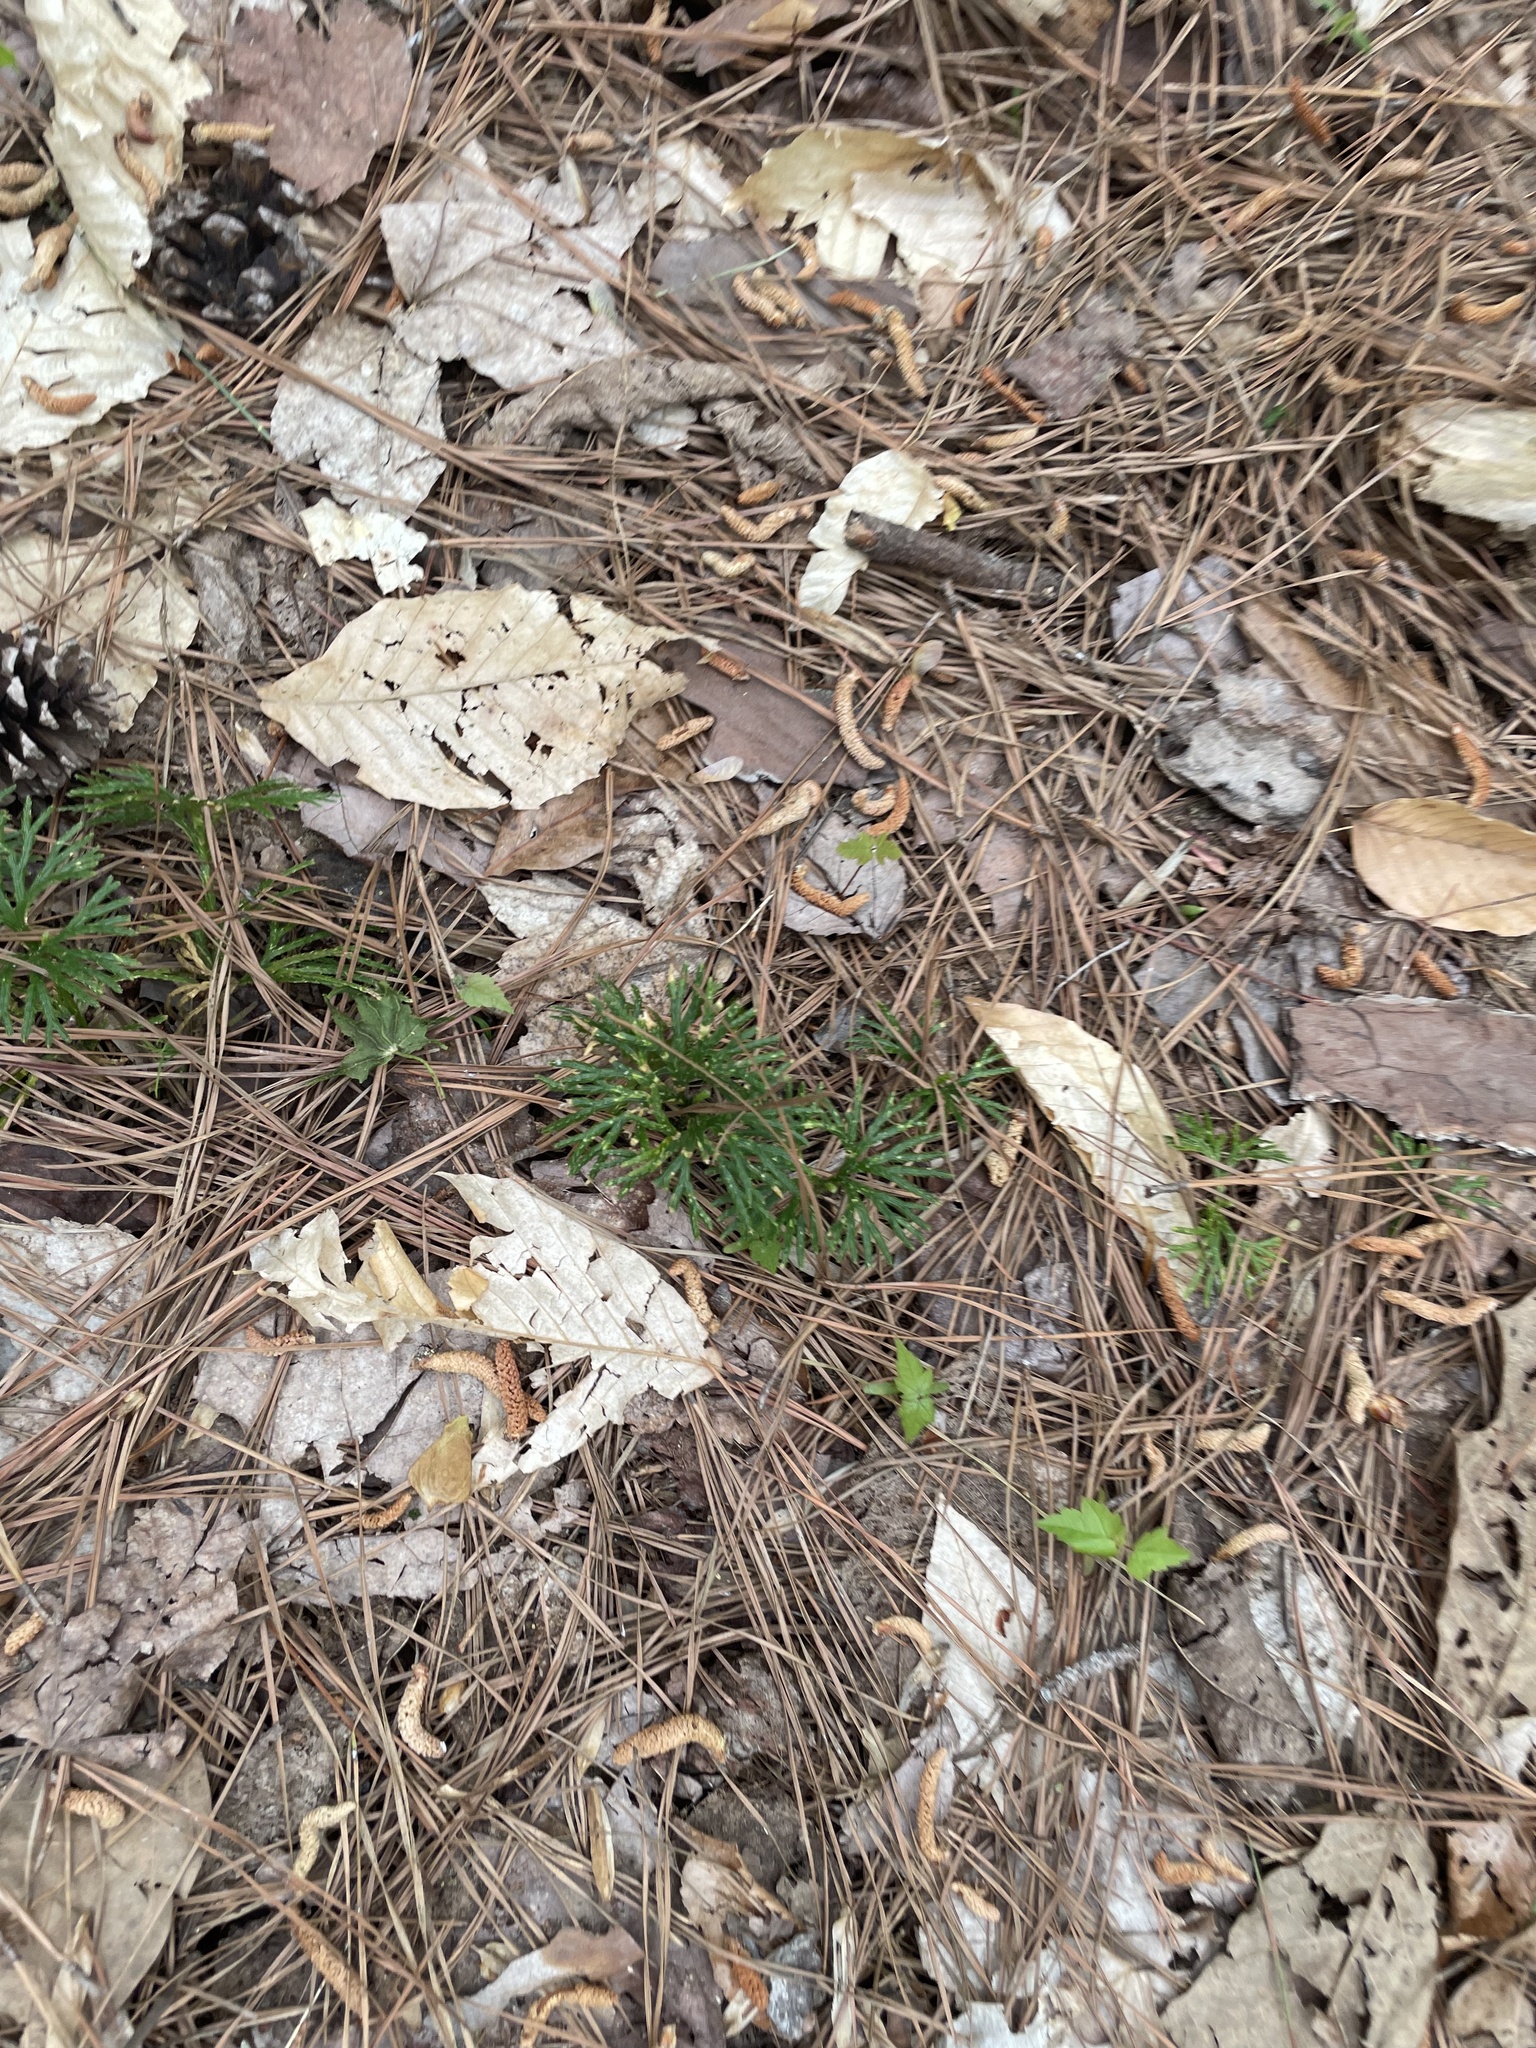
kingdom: Plantae
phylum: Tracheophyta
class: Lycopodiopsida
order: Lycopodiales
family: Lycopodiaceae
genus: Diphasiastrum
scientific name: Diphasiastrum digitatum
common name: Southern running-pine
